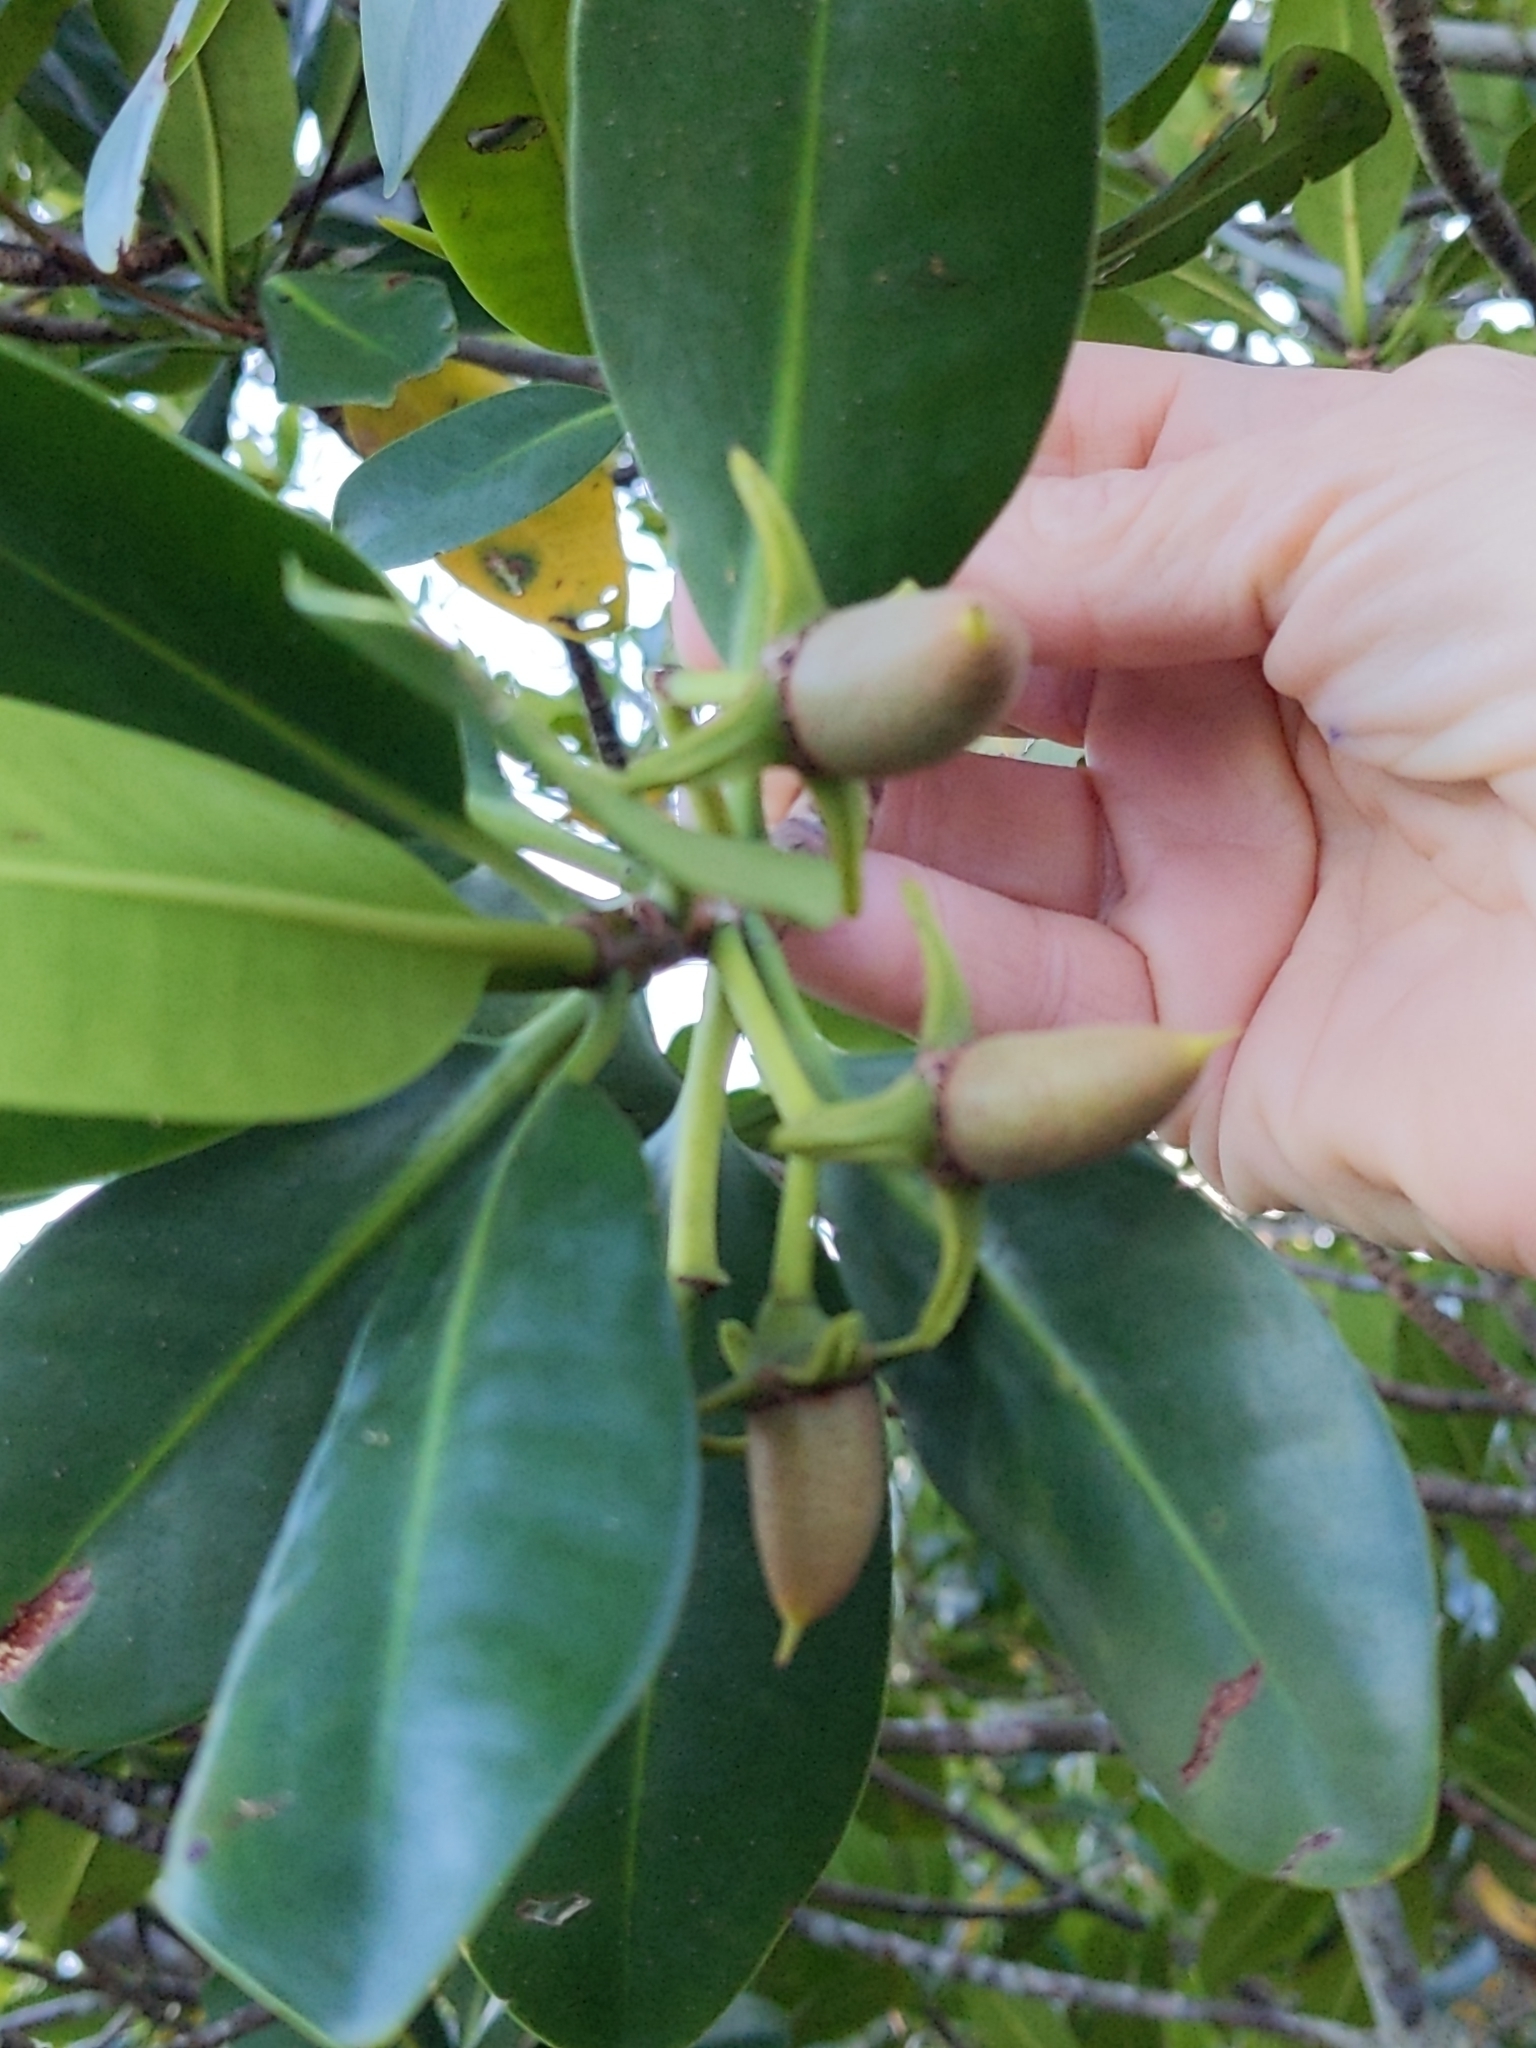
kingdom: Plantae
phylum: Tracheophyta
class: Magnoliopsida
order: Malpighiales
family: Rhizophoraceae
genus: Rhizophora
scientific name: Rhizophora mangle
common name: Red mangrove
